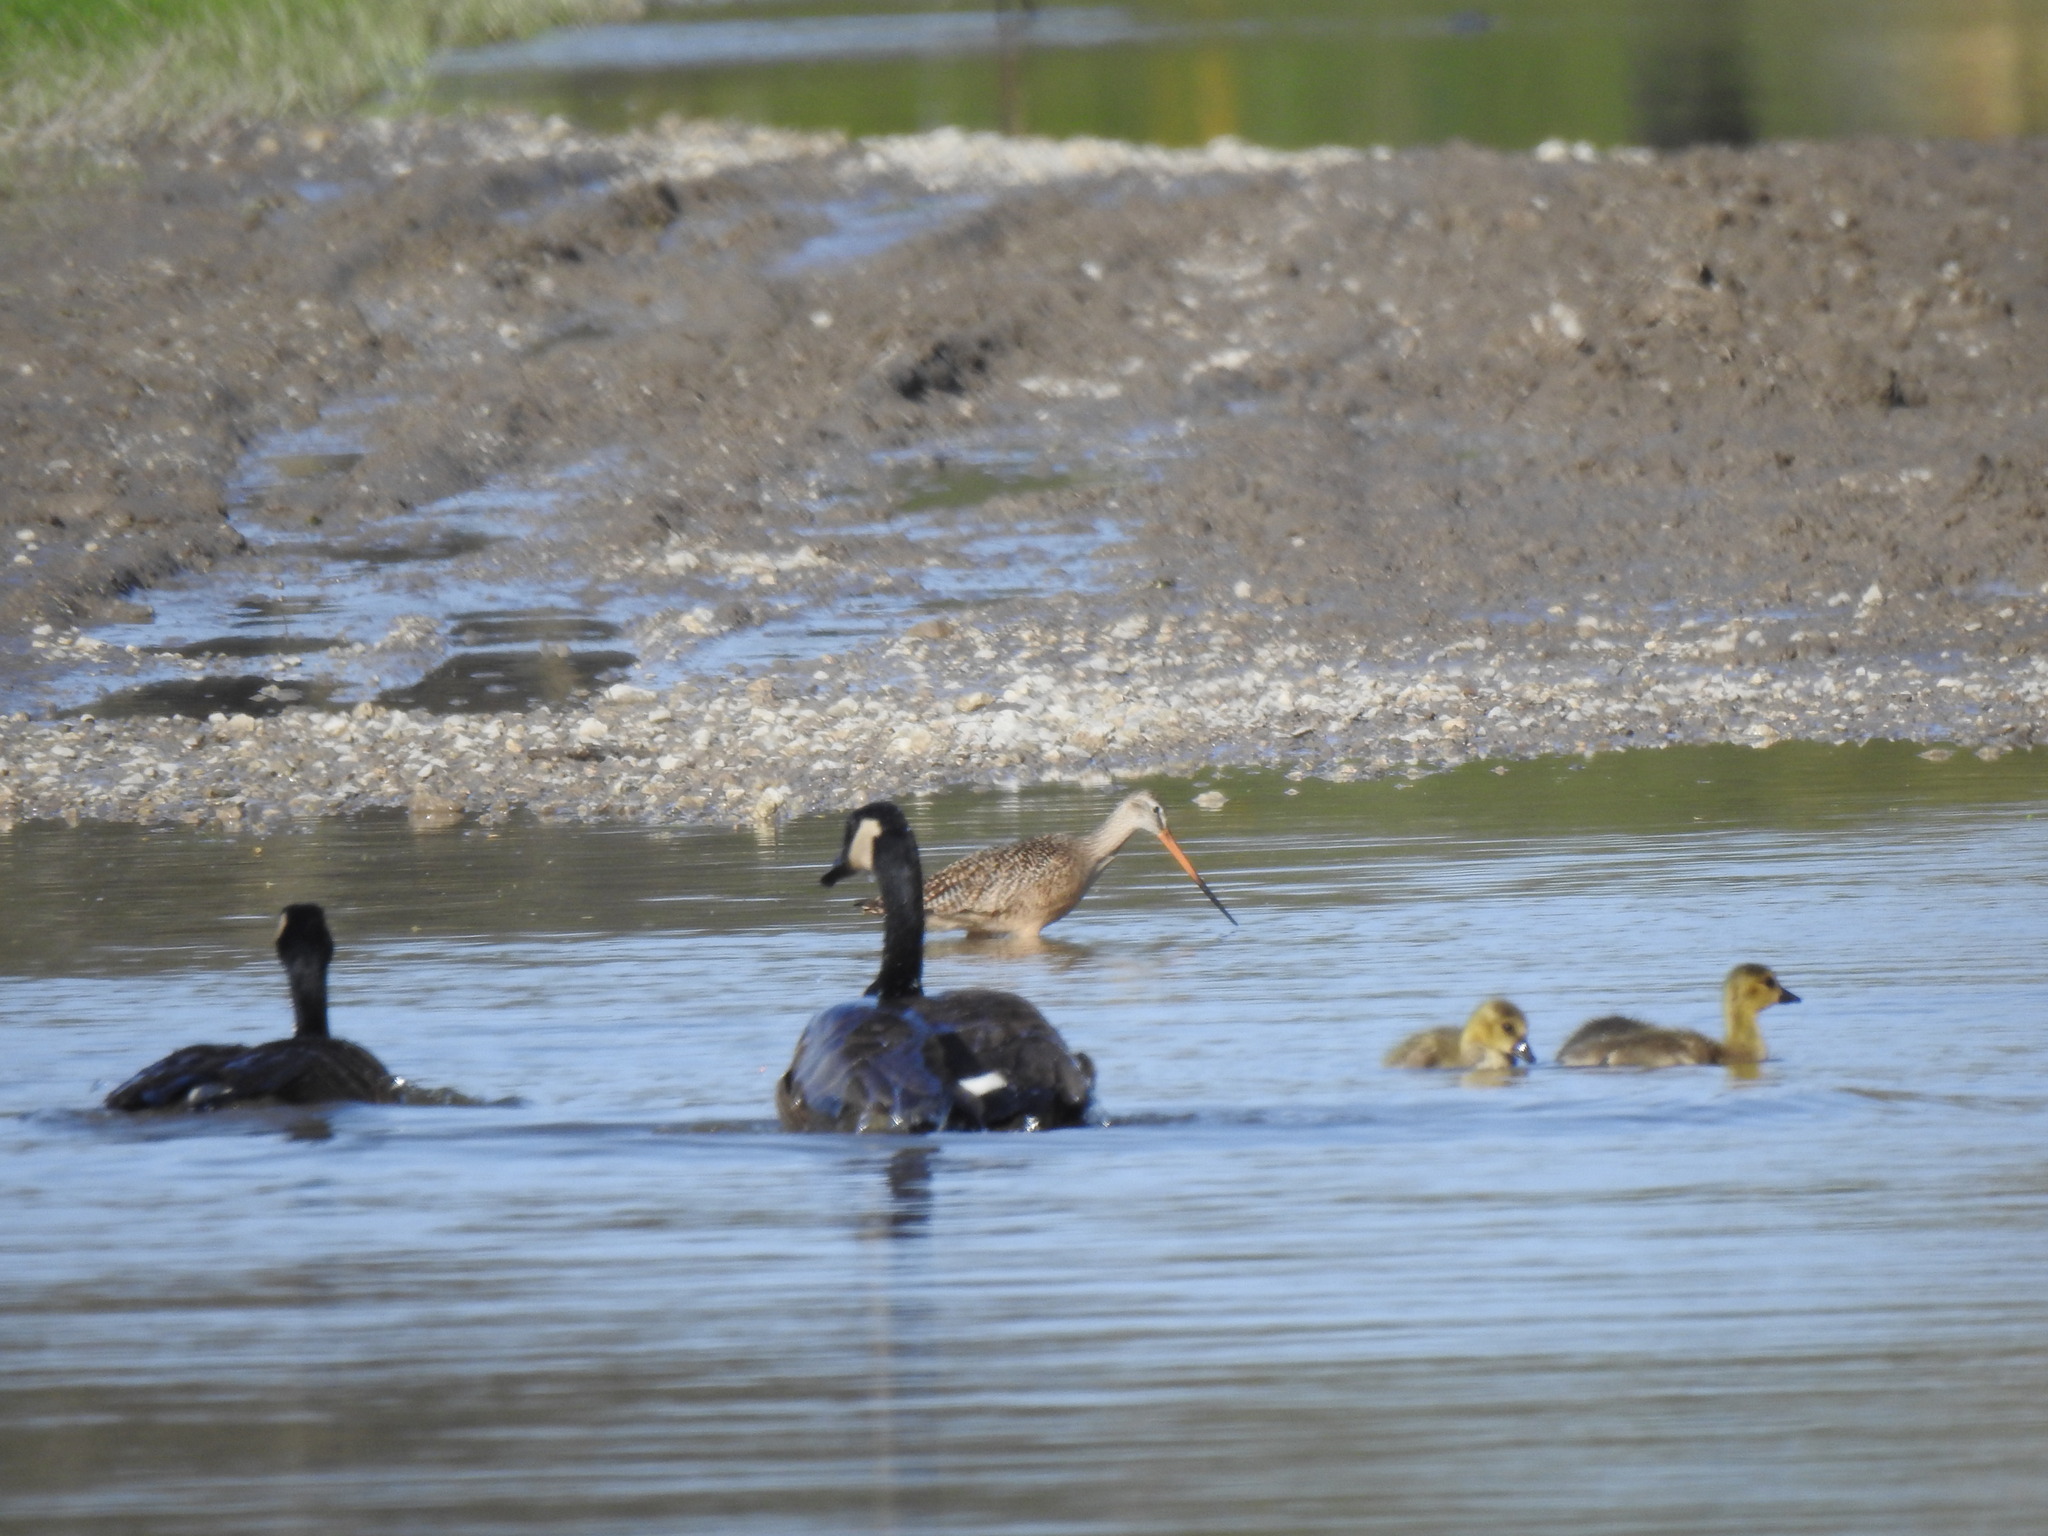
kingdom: Animalia
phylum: Chordata
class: Aves
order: Charadriiformes
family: Scolopacidae
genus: Limosa
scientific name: Limosa fedoa
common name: Marbled godwit
